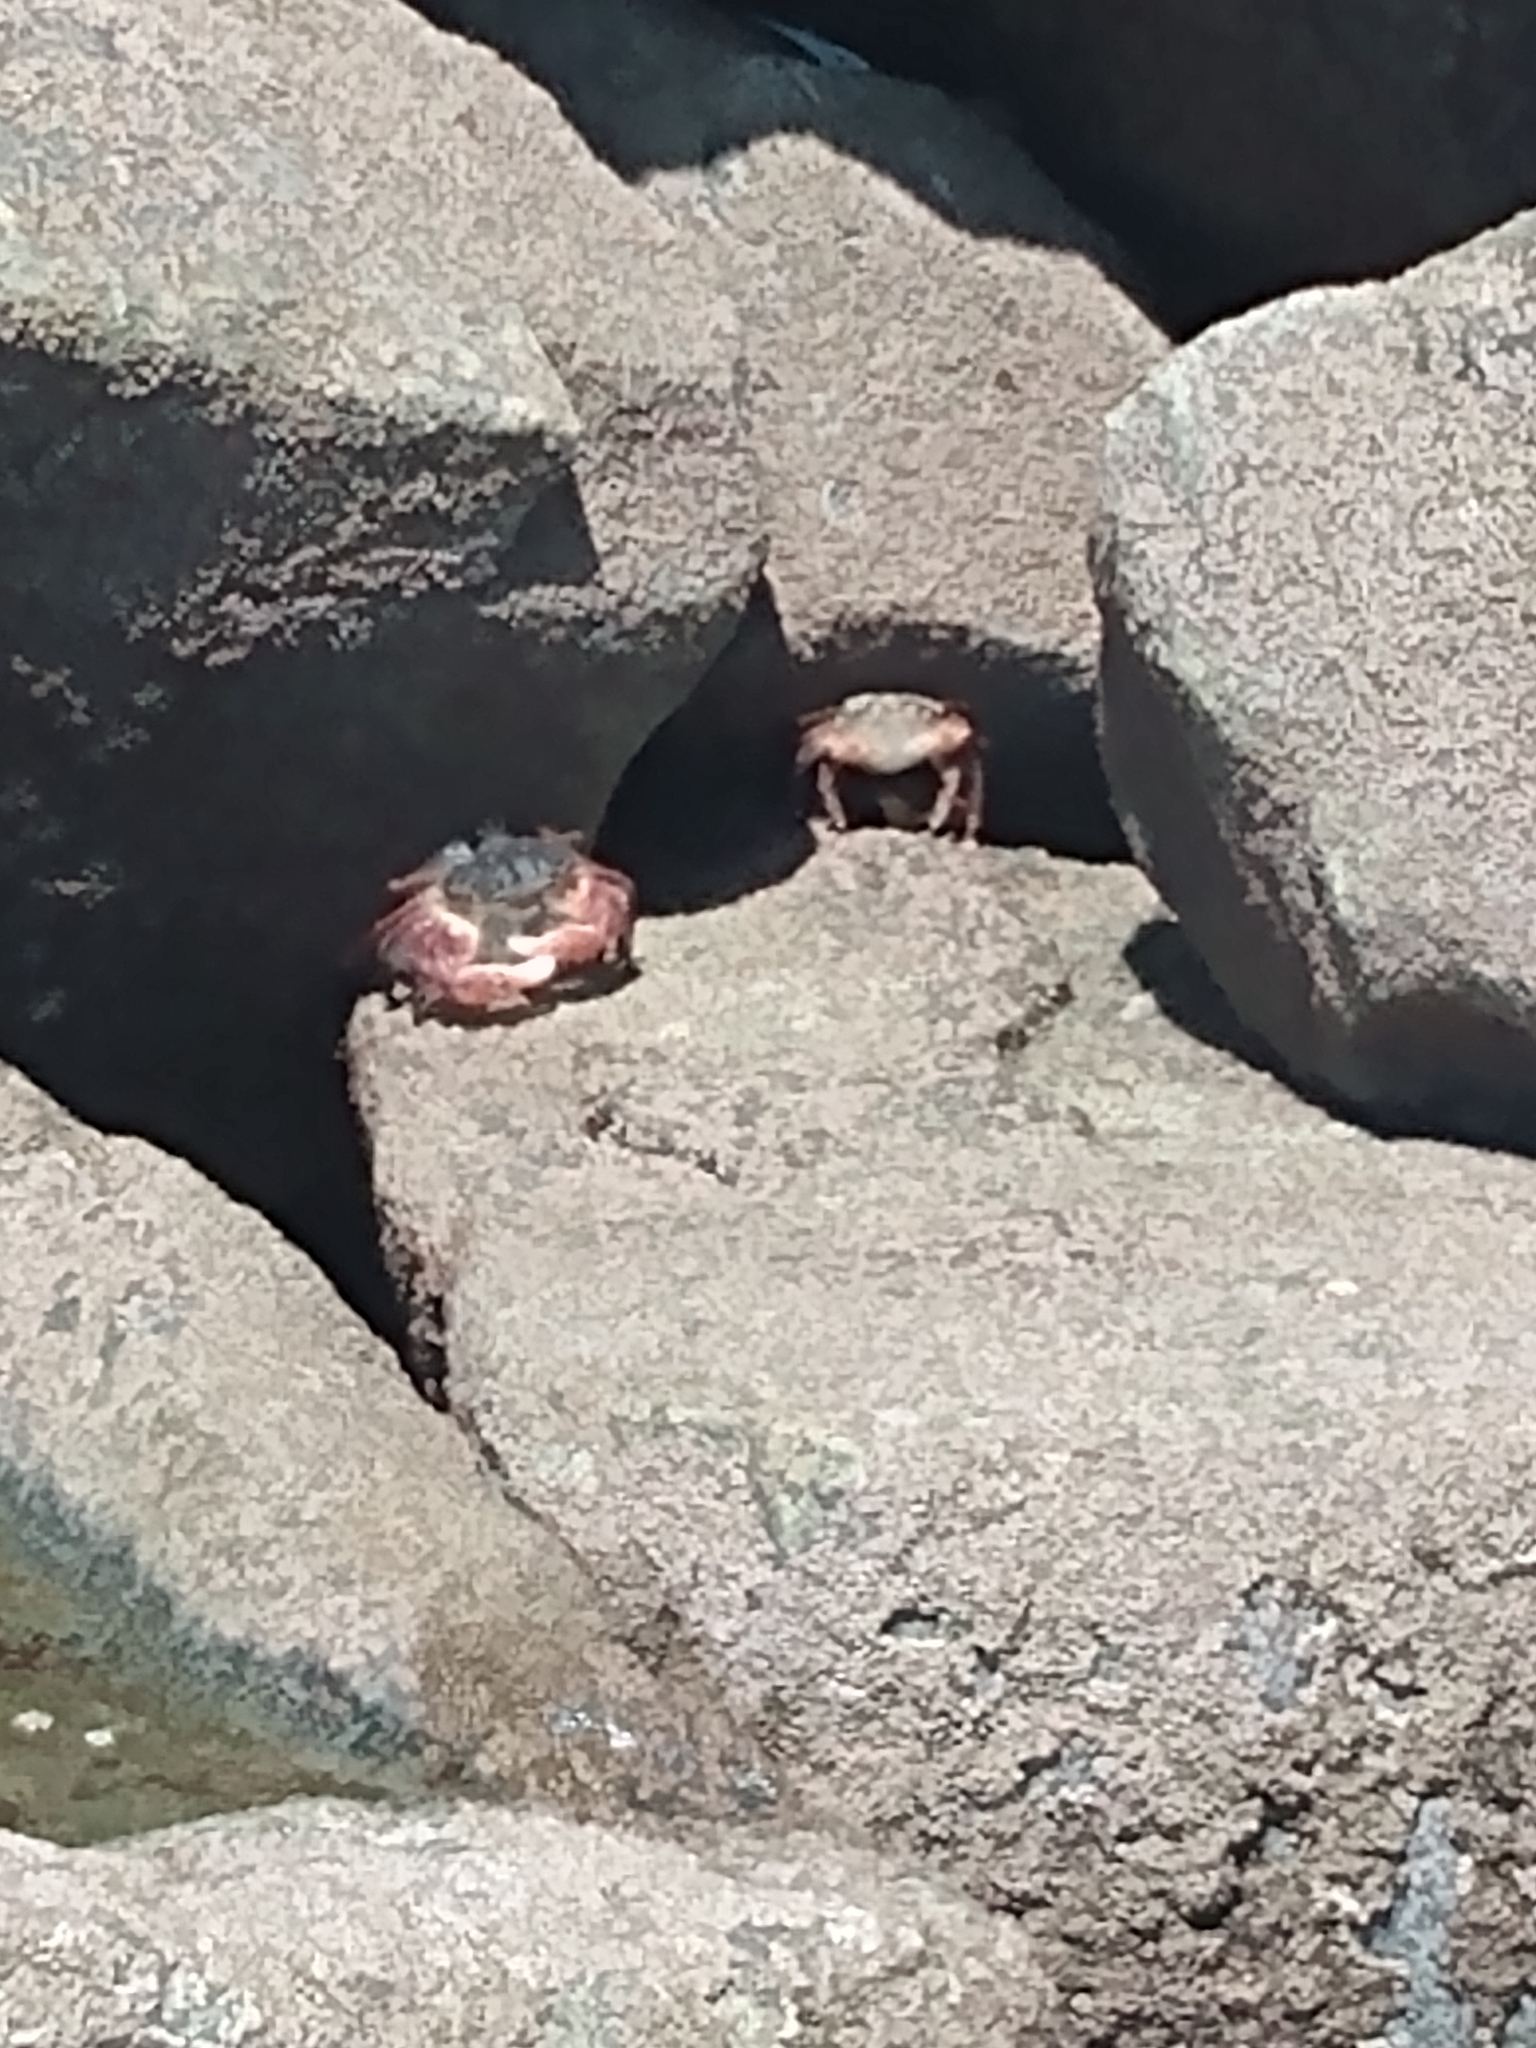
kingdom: Animalia
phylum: Arthropoda
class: Malacostraca
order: Decapoda
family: Grapsidae
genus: Pachygrapsus
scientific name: Pachygrapsus crassipes
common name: Striped shore crab
